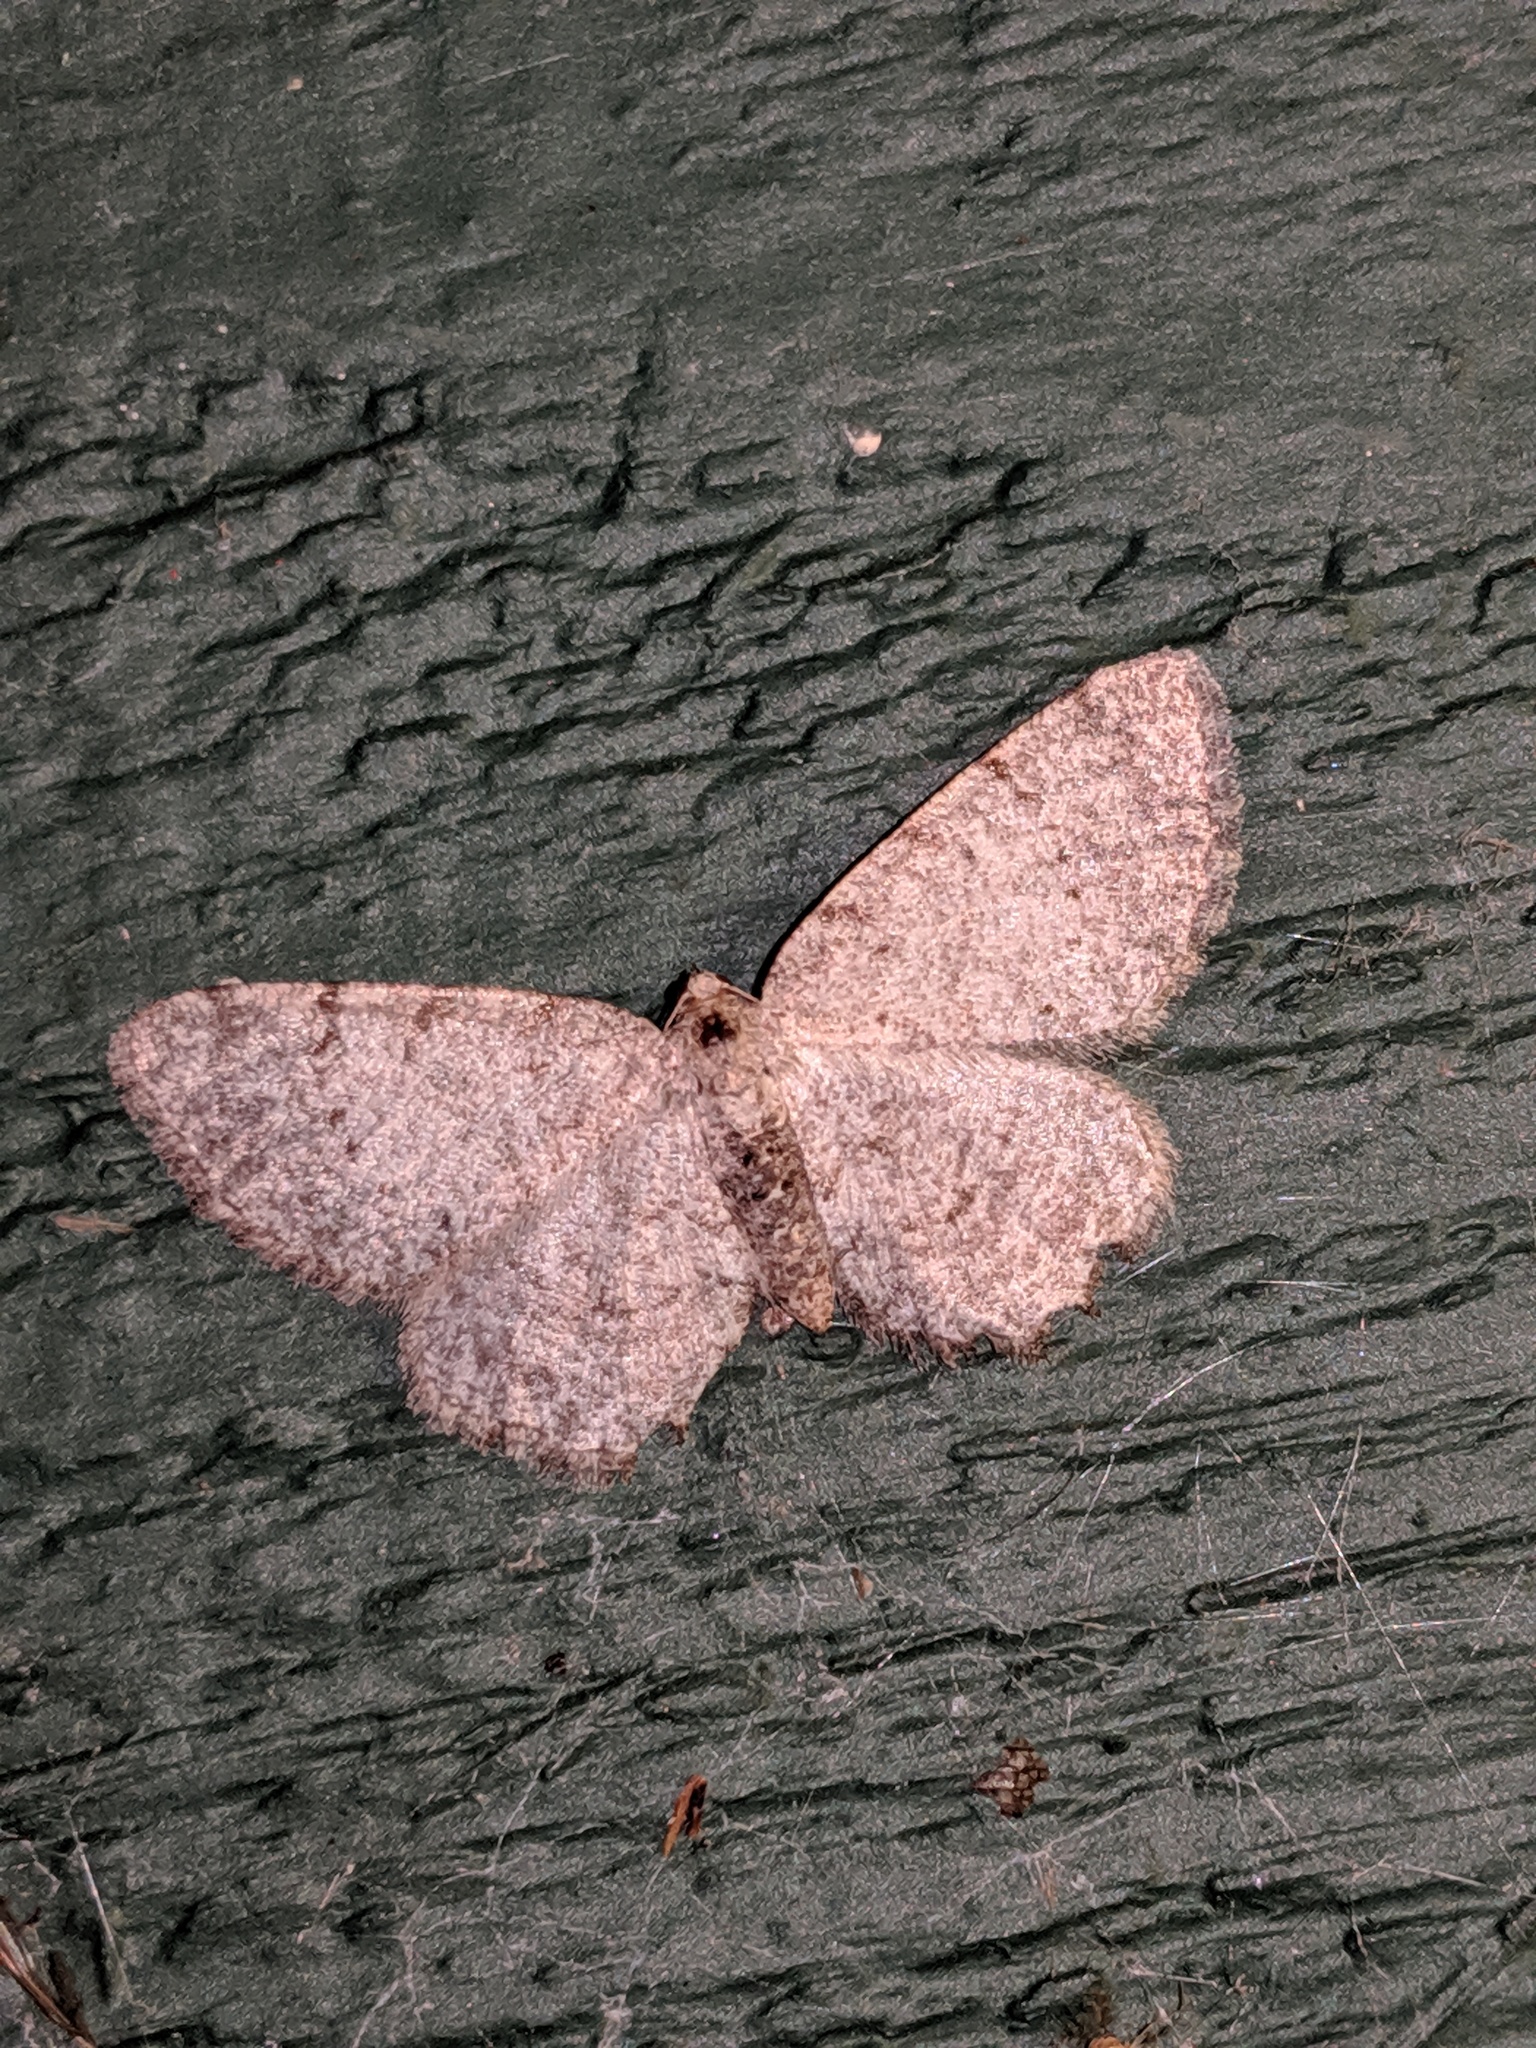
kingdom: Animalia
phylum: Arthropoda
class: Insecta
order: Lepidoptera
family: Geometridae
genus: Aethalura
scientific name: Aethalura intertexta
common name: Four-barred gray
